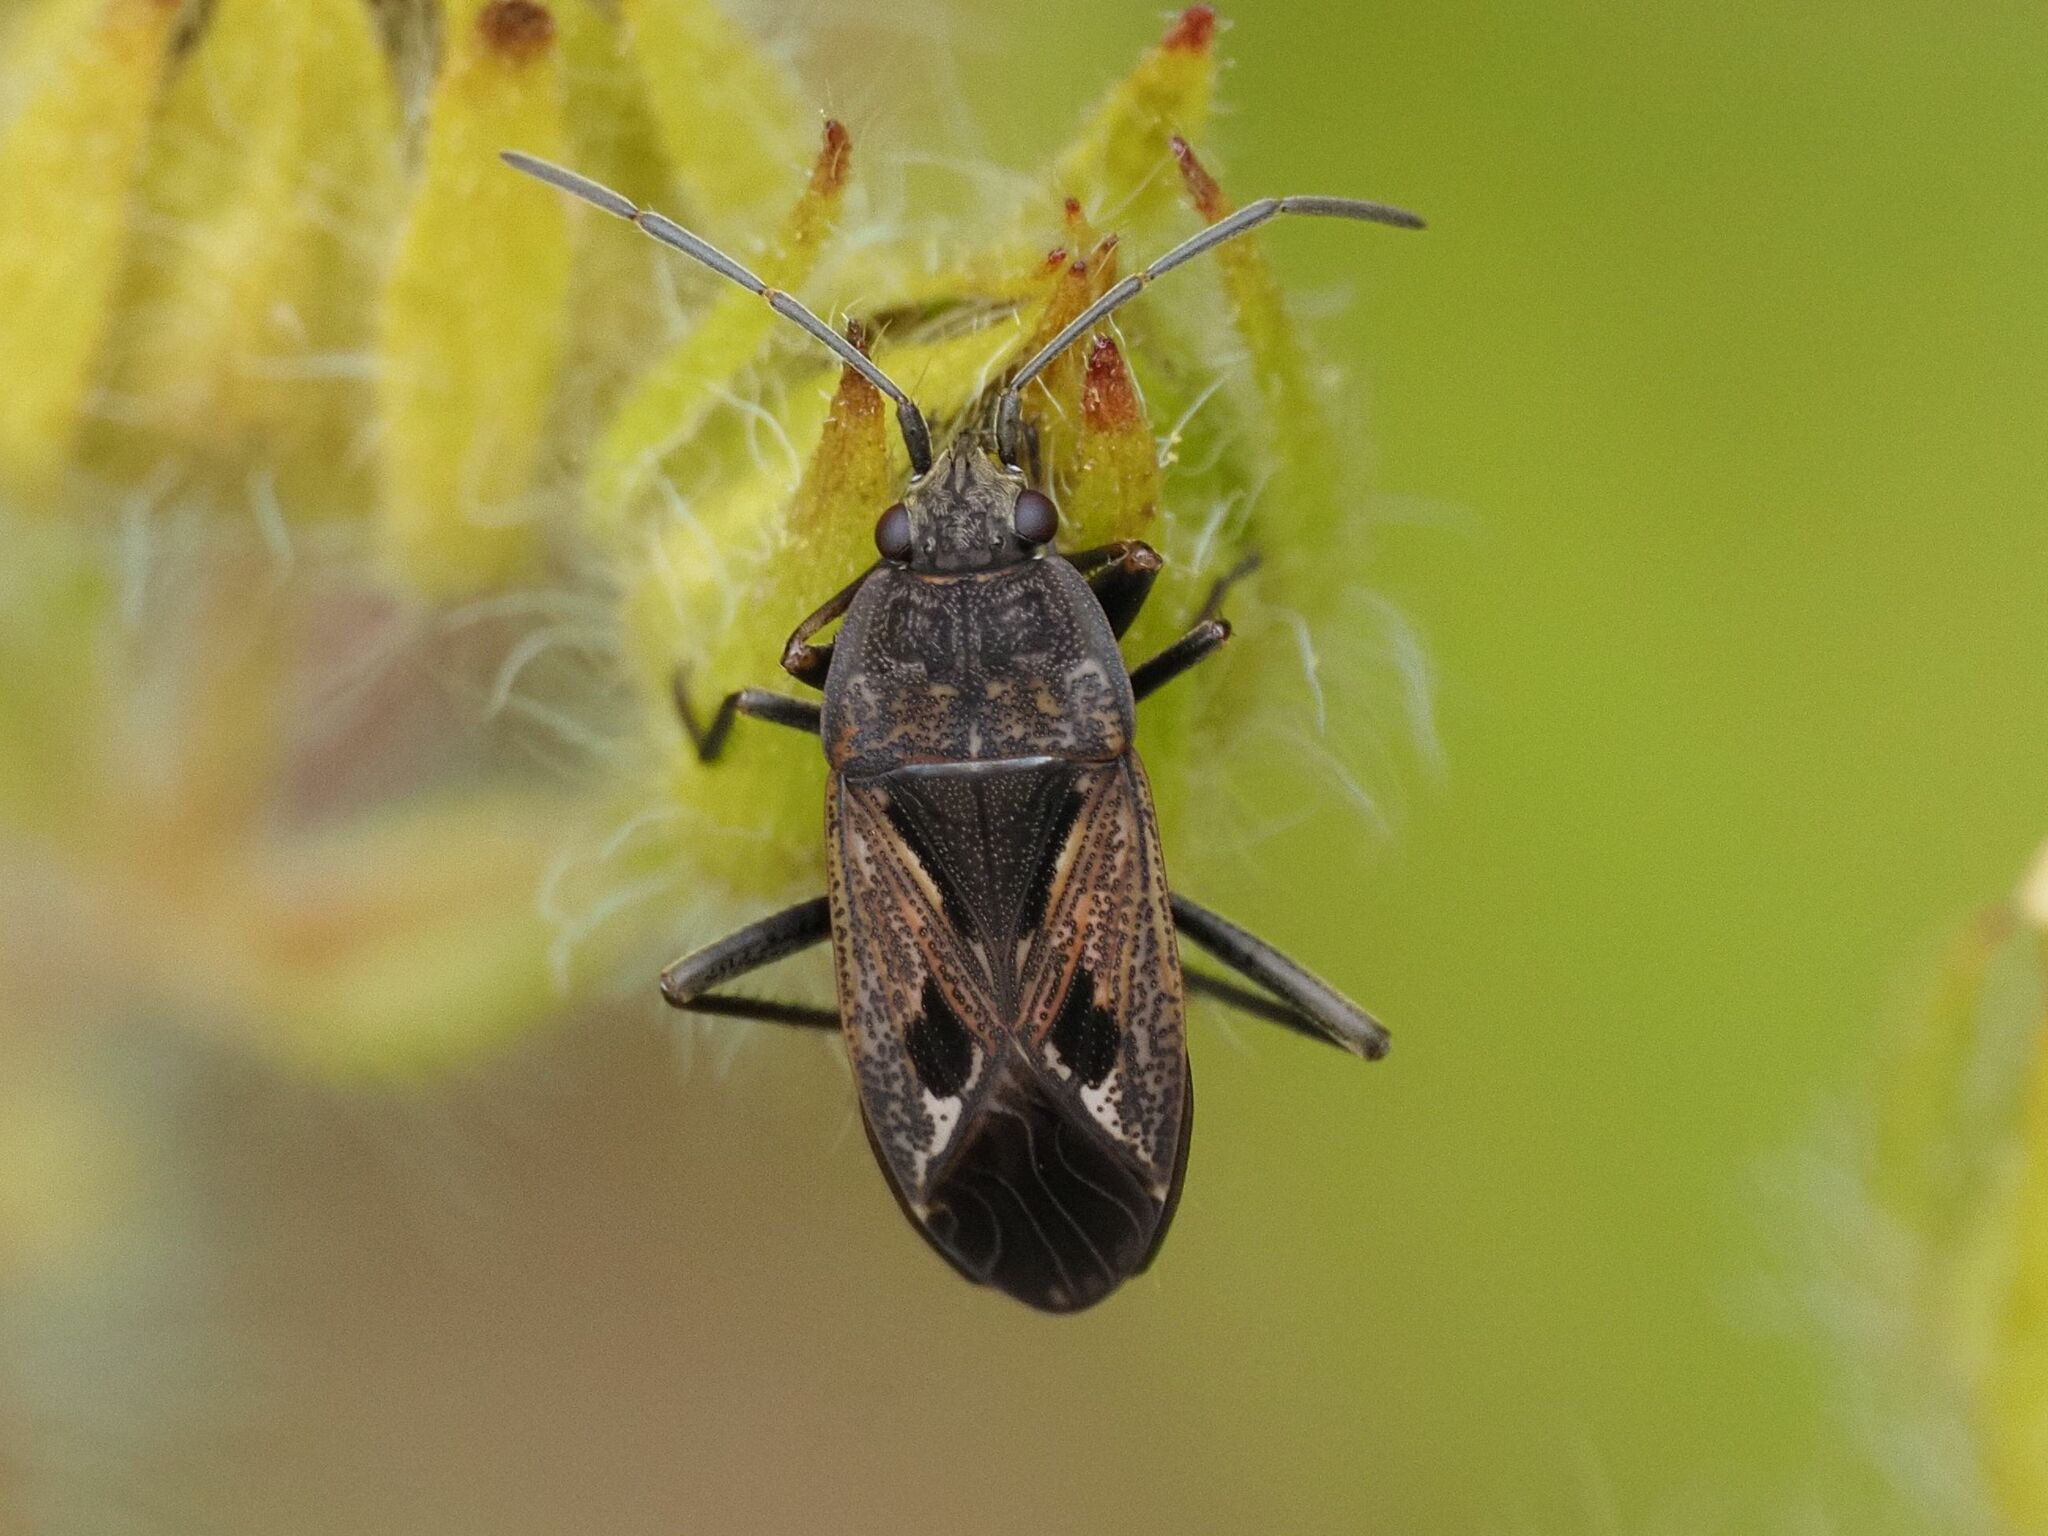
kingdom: Animalia
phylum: Arthropoda
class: Insecta
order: Hemiptera
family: Rhyparochromidae
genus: Rhyparochromus
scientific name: Rhyparochromus pini
